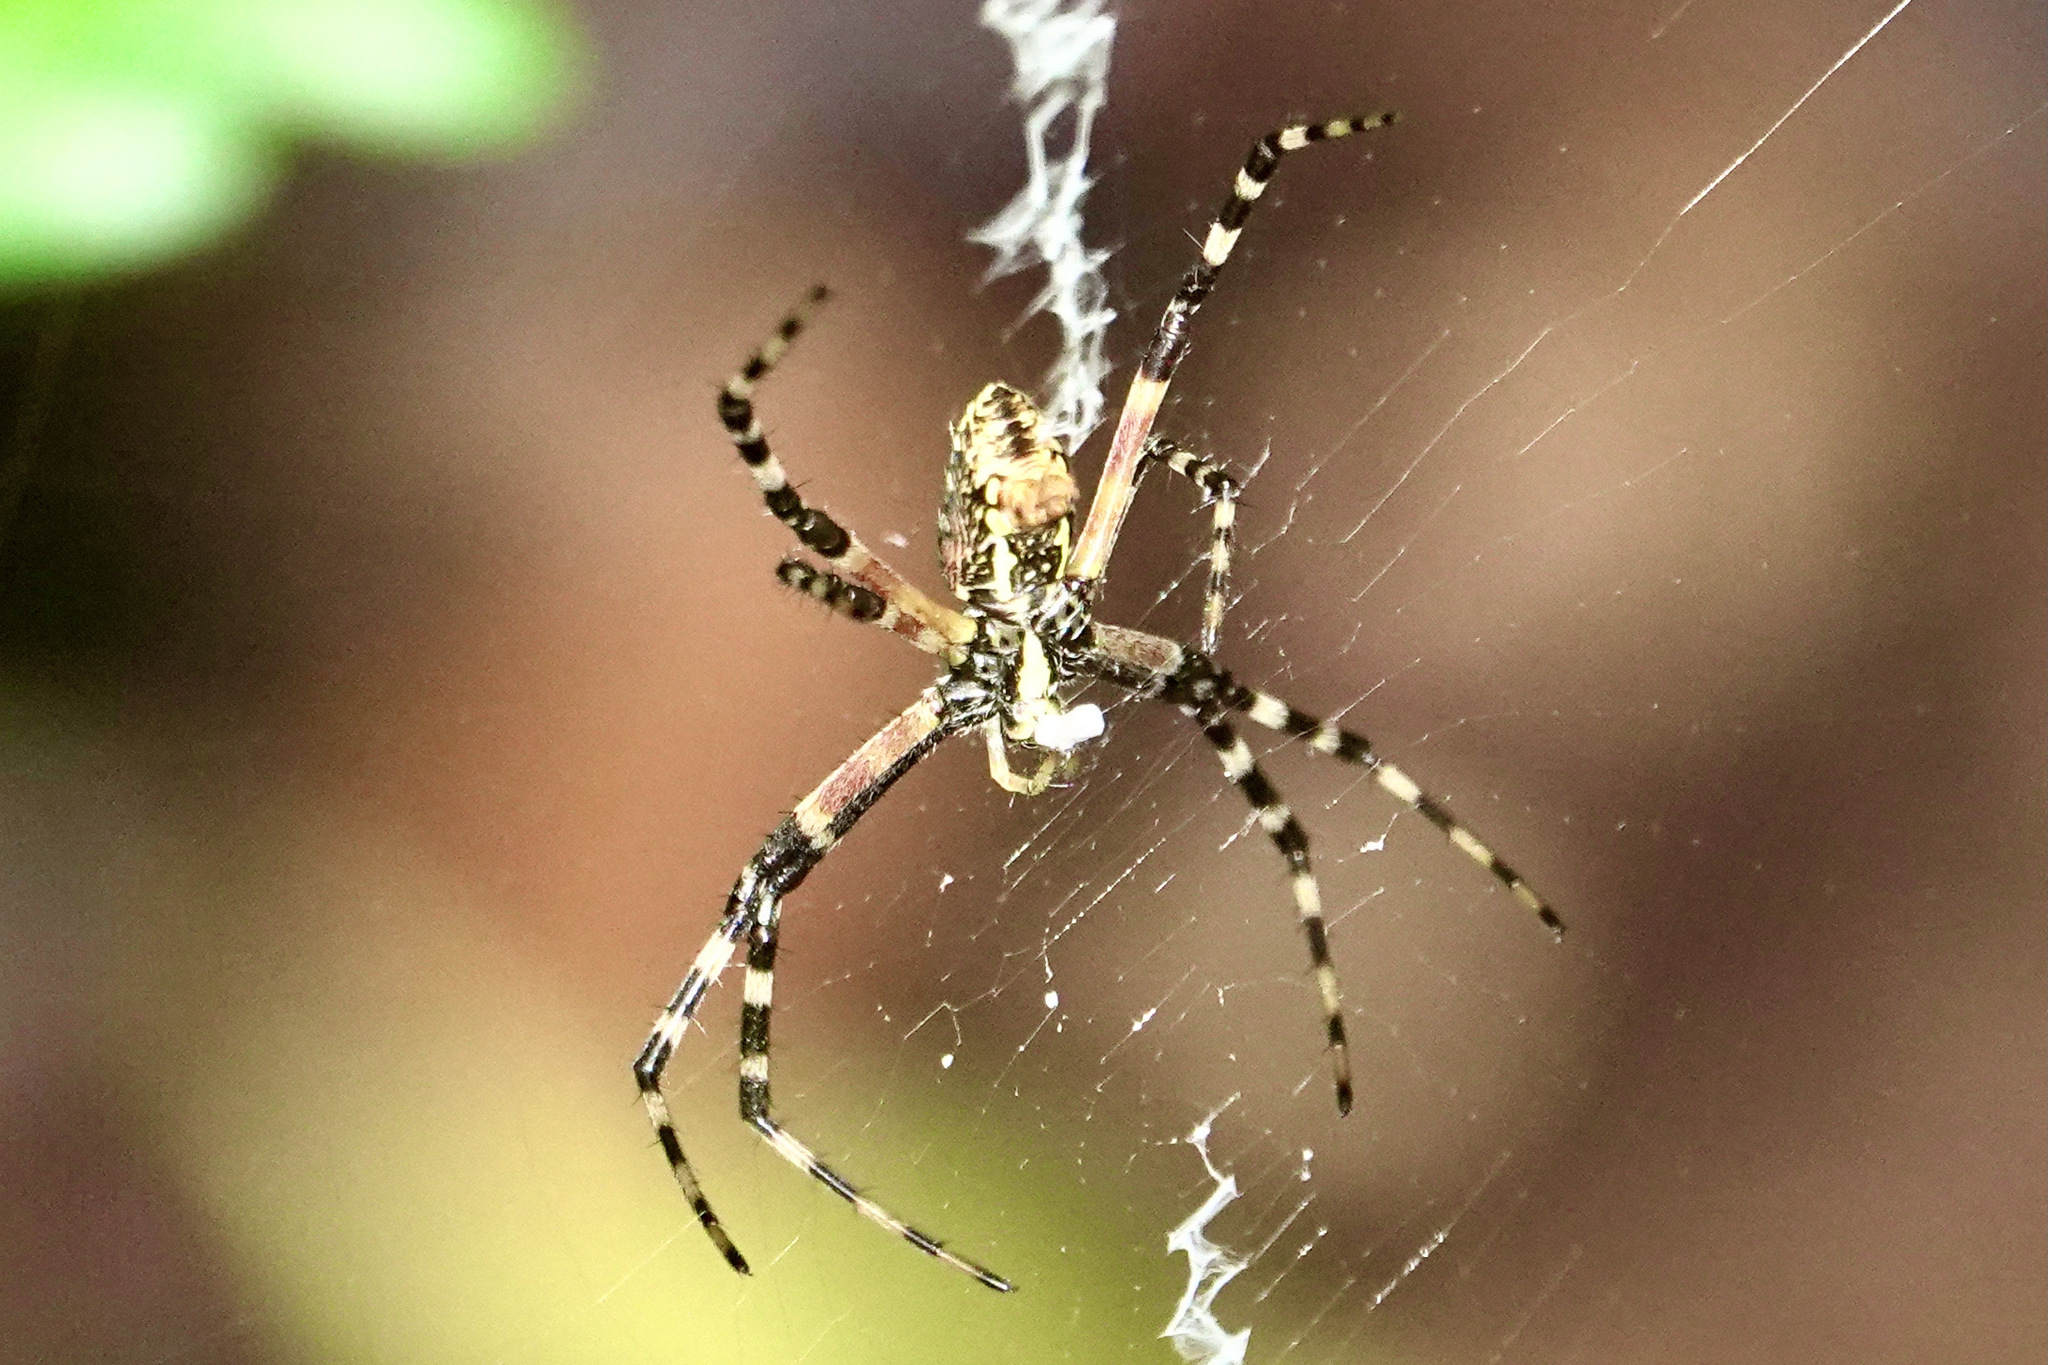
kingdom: Animalia
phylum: Arthropoda
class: Arachnida
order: Araneae
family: Araneidae
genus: Argiope
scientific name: Argiope aurantia
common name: Orb weavers
